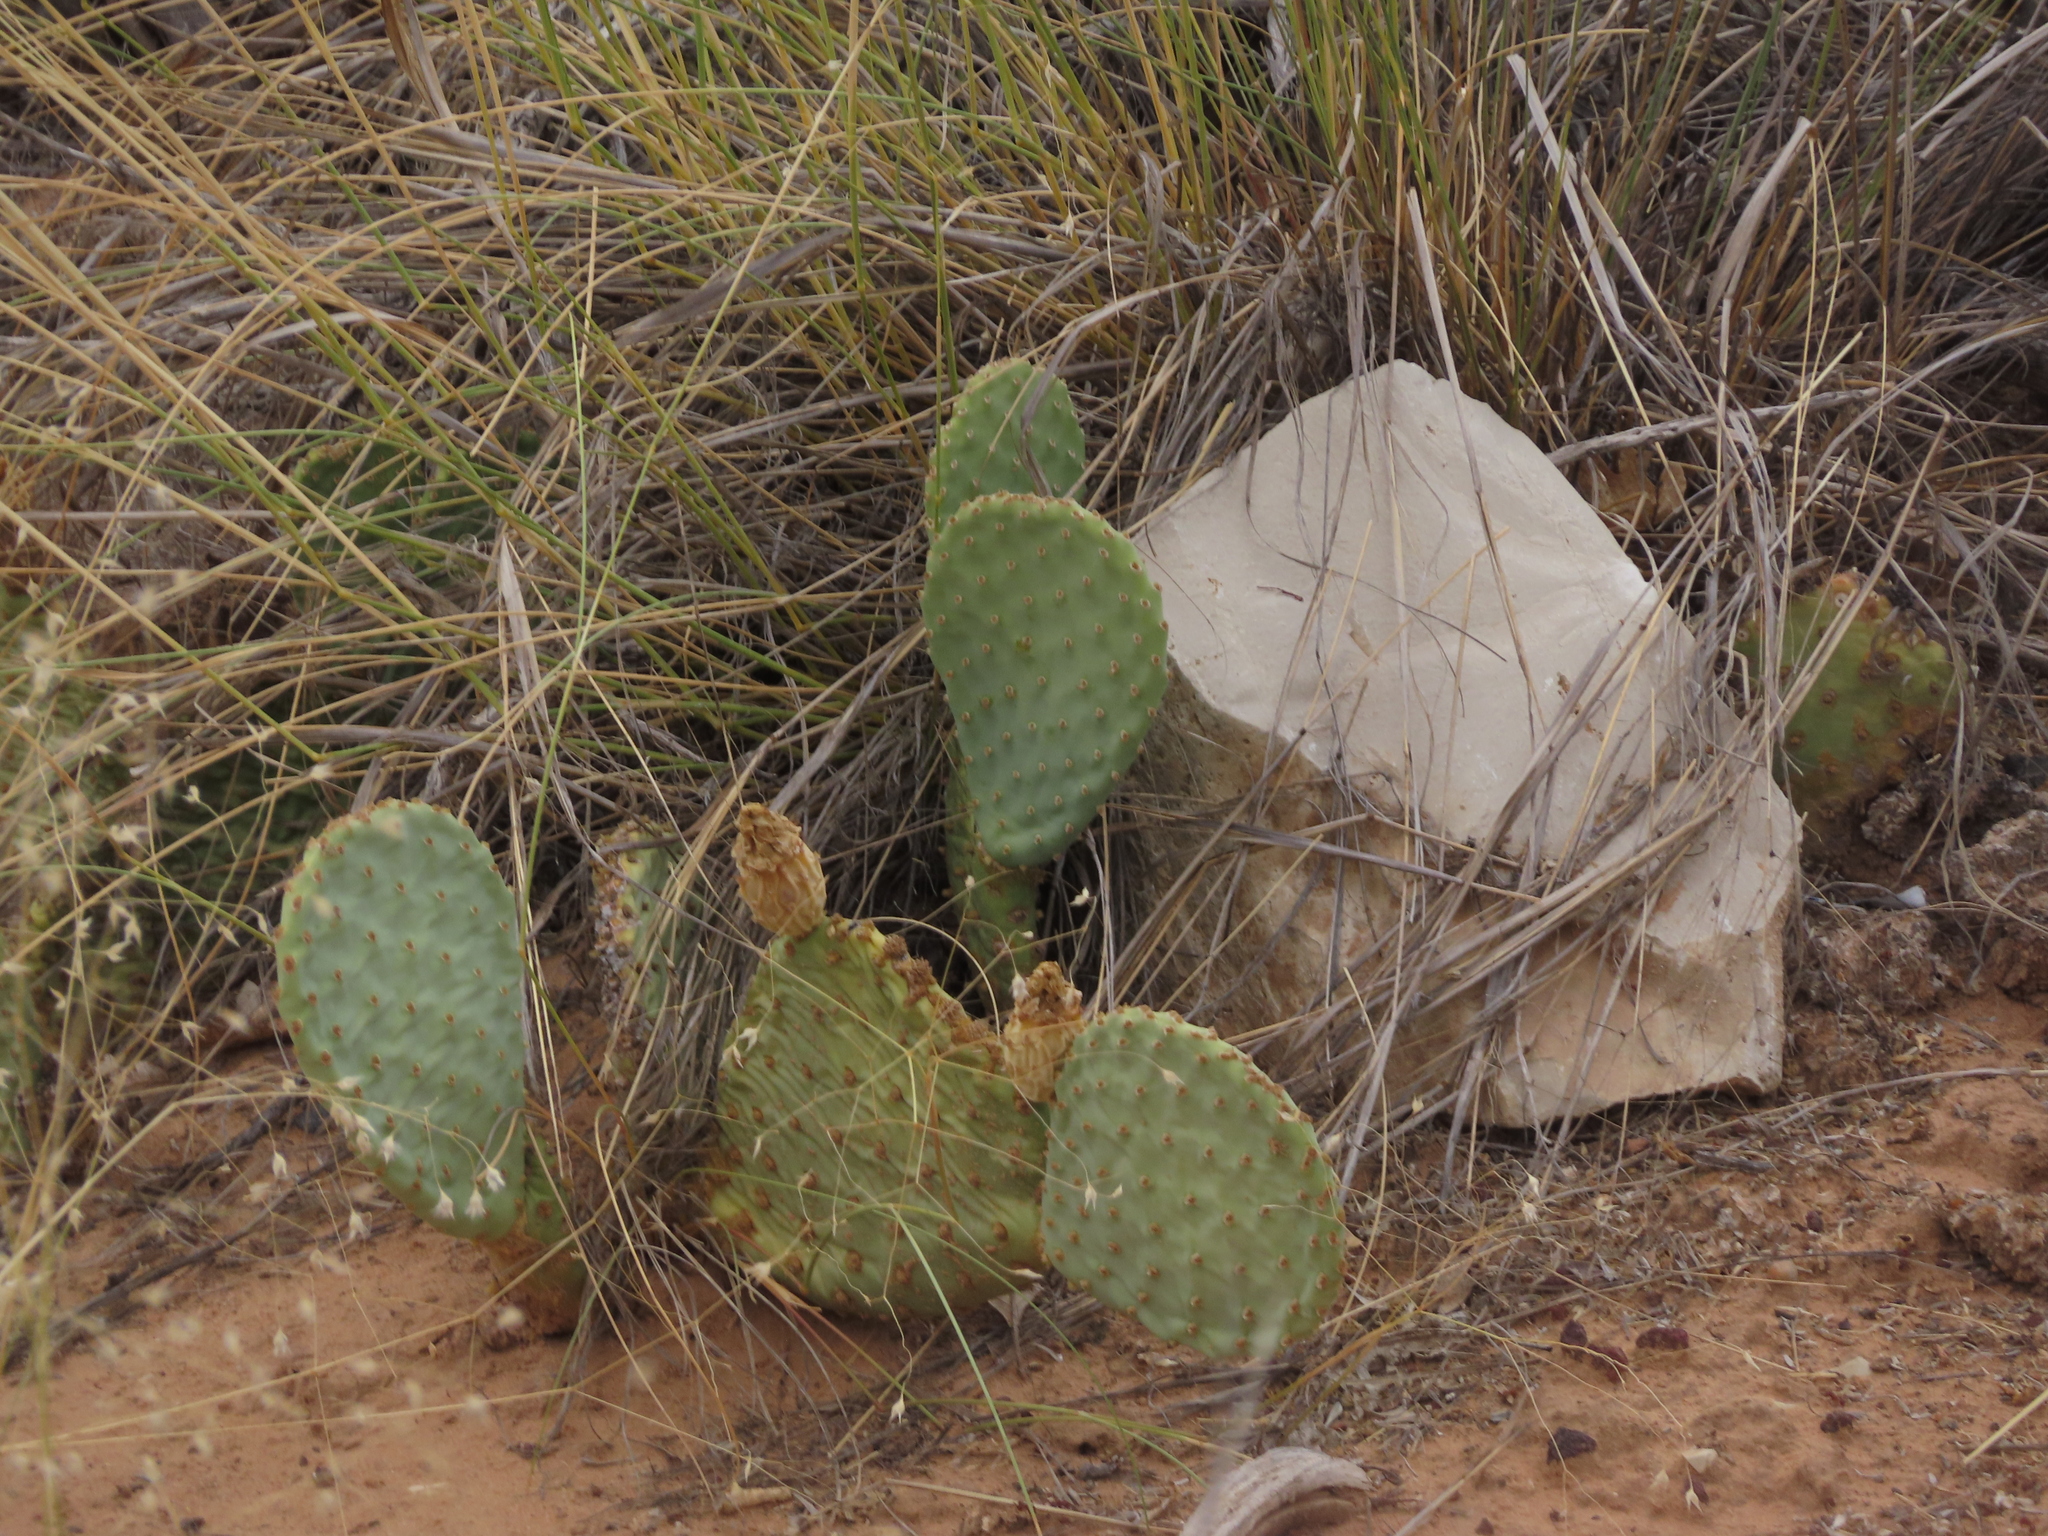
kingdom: Plantae
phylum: Tracheophyta
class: Magnoliopsida
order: Caryophyllales
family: Cactaceae
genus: Opuntia
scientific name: Opuntia aurea
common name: Golden prickly-pear
